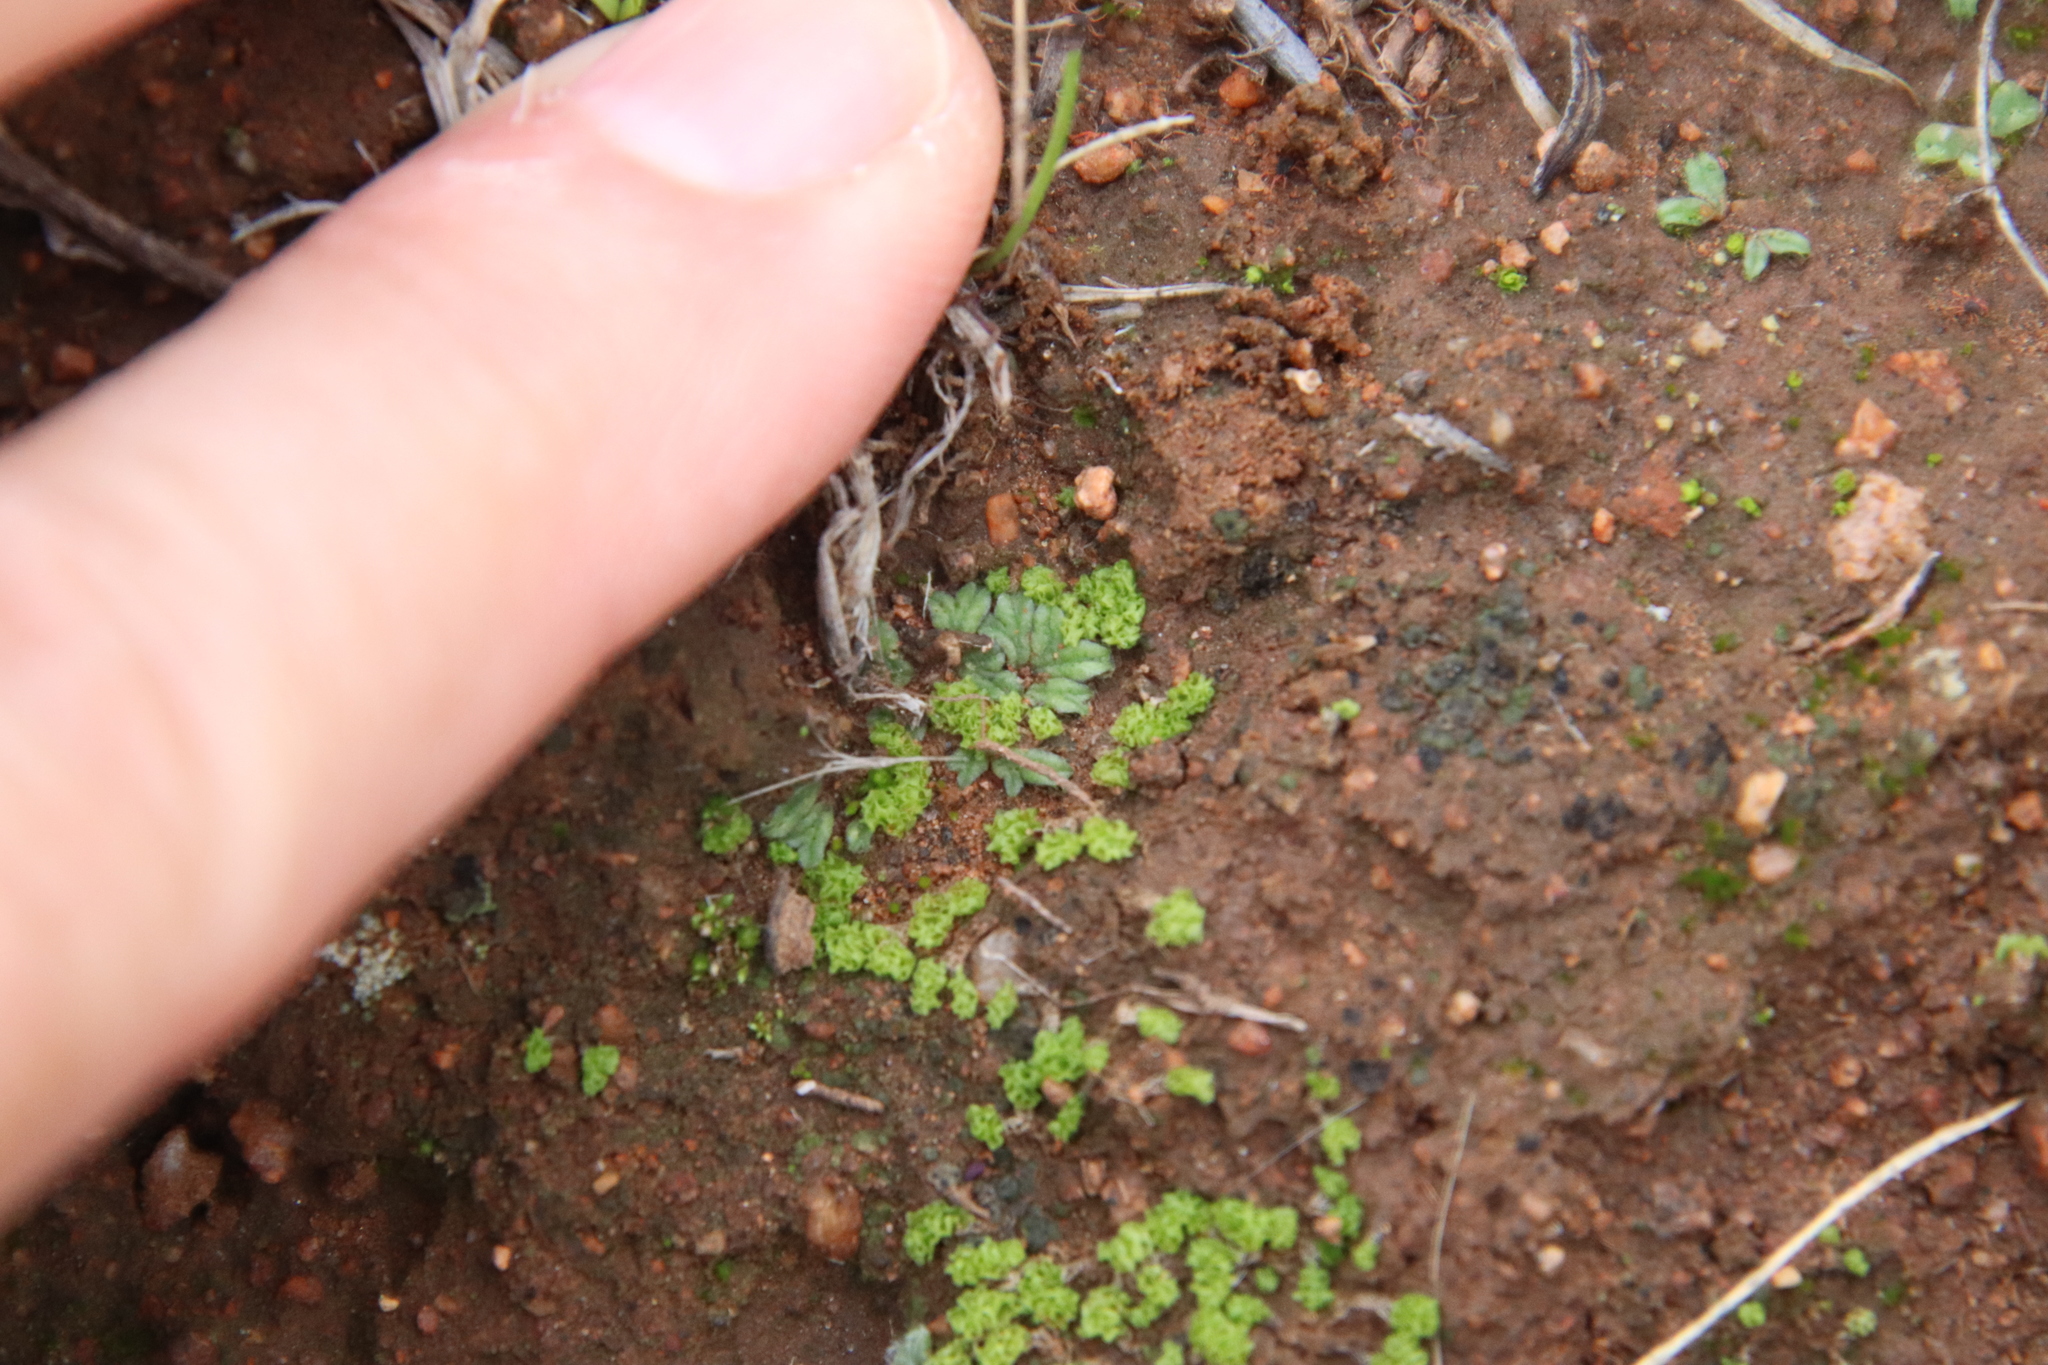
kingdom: Plantae
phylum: Marchantiophyta
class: Jungermanniopsida
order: Fossombroniales
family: Fossombroniaceae
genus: Fossombronia
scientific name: Fossombronia
